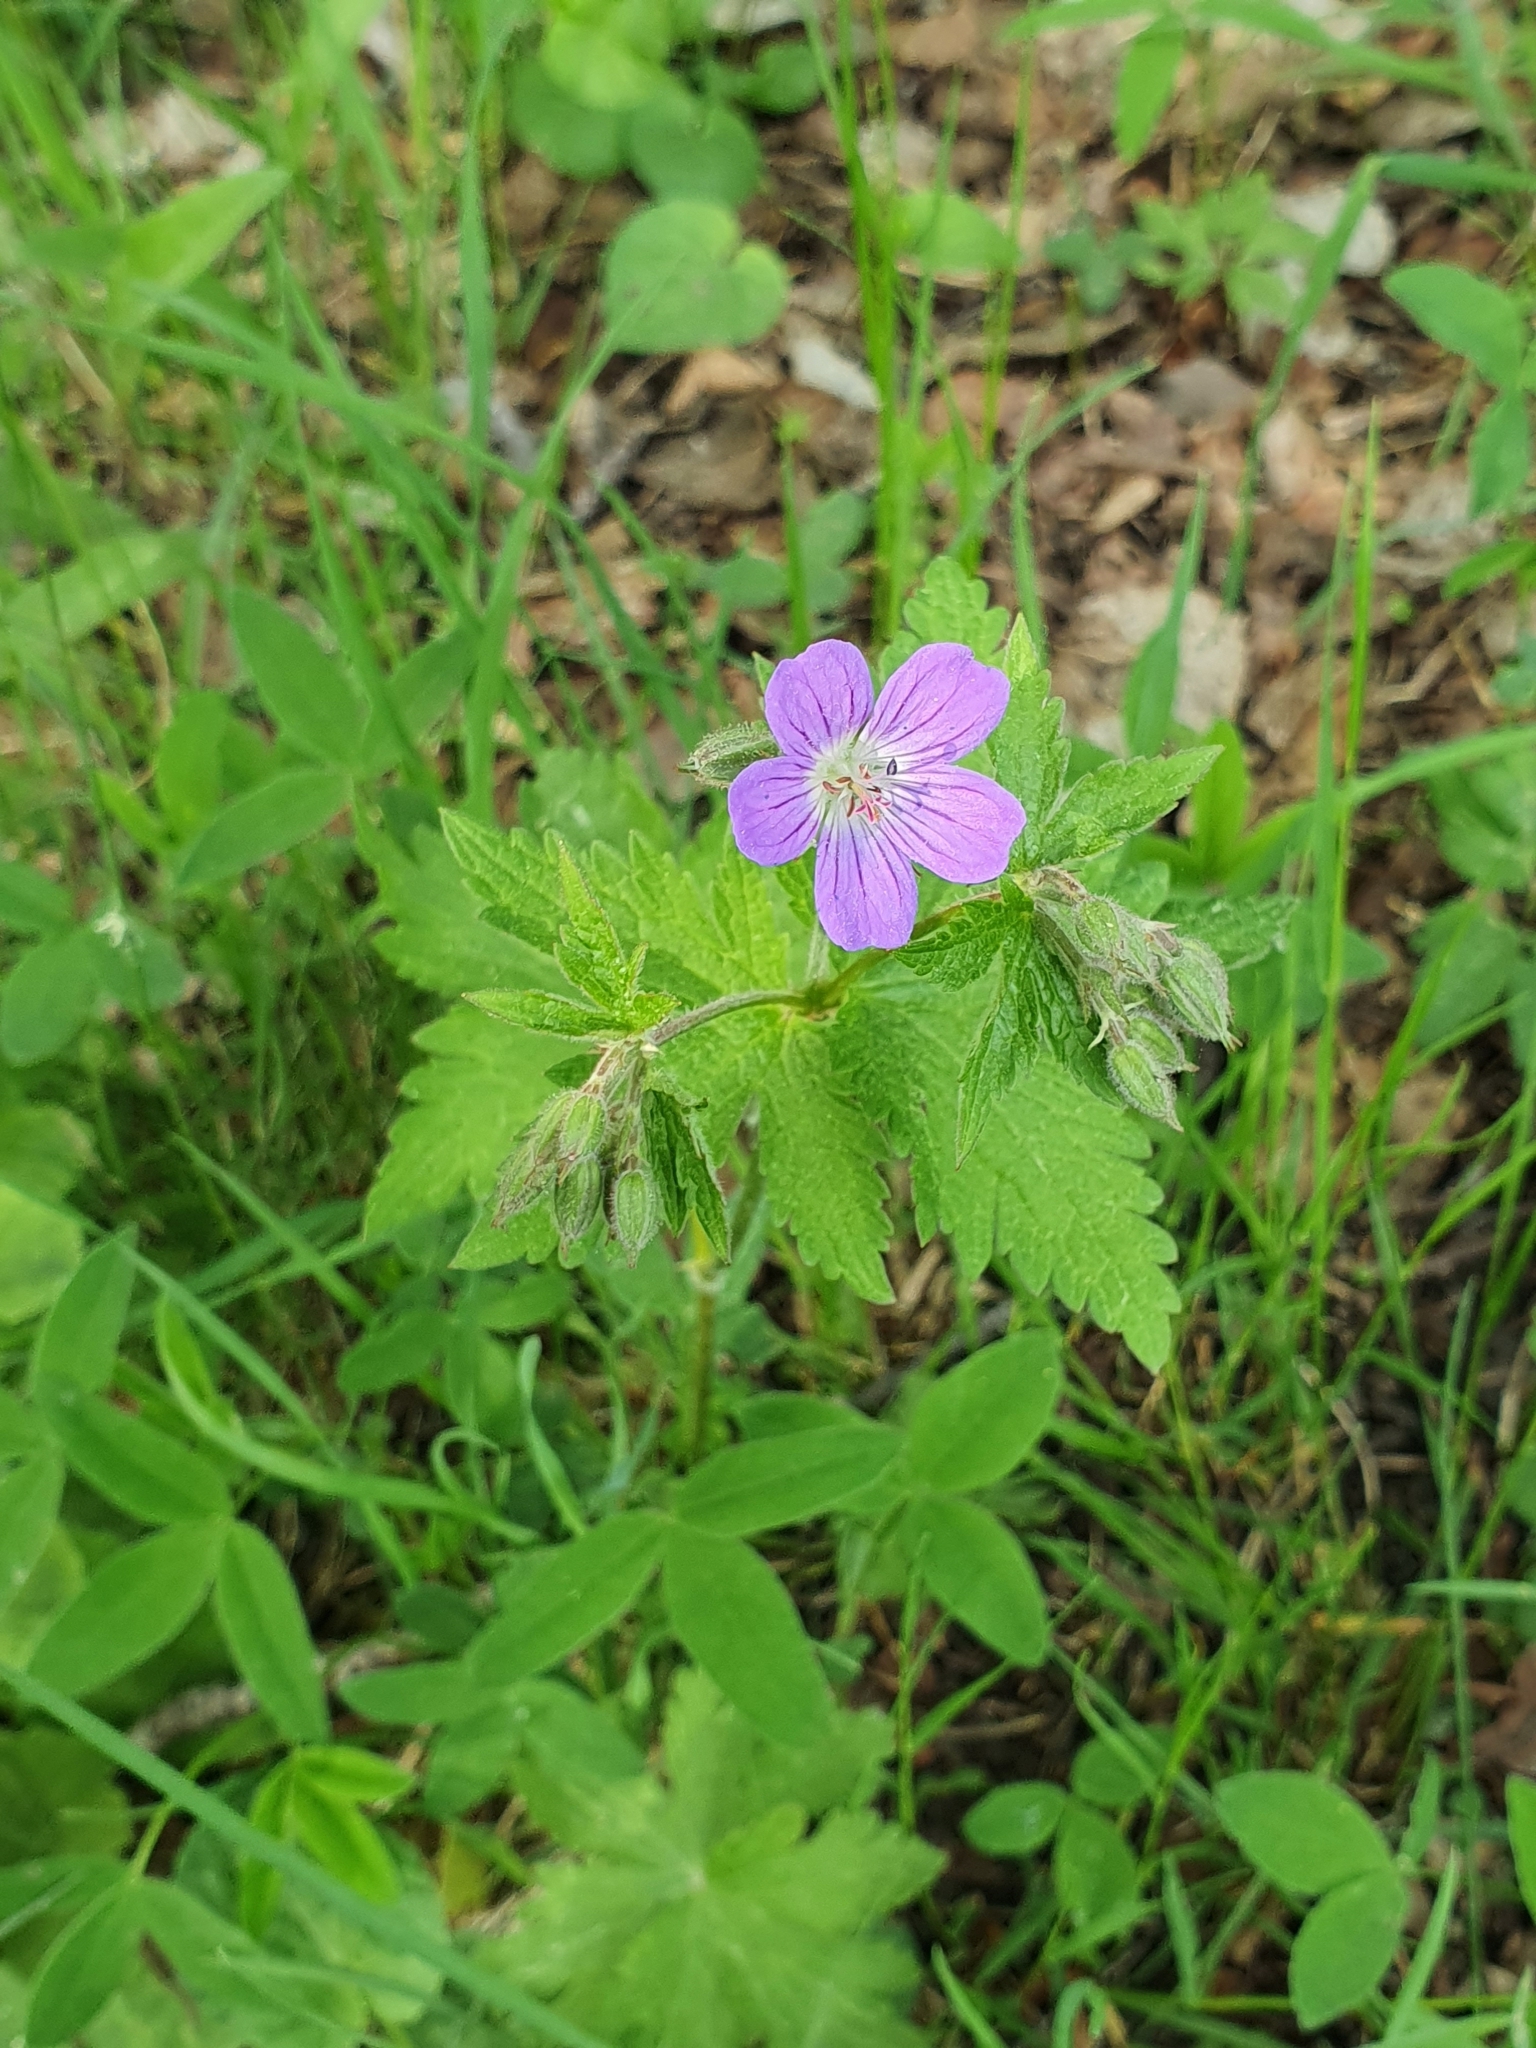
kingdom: Plantae
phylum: Tracheophyta
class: Magnoliopsida
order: Geraniales
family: Geraniaceae
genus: Geranium
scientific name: Geranium sylvaticum
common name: Wood crane's-bill
